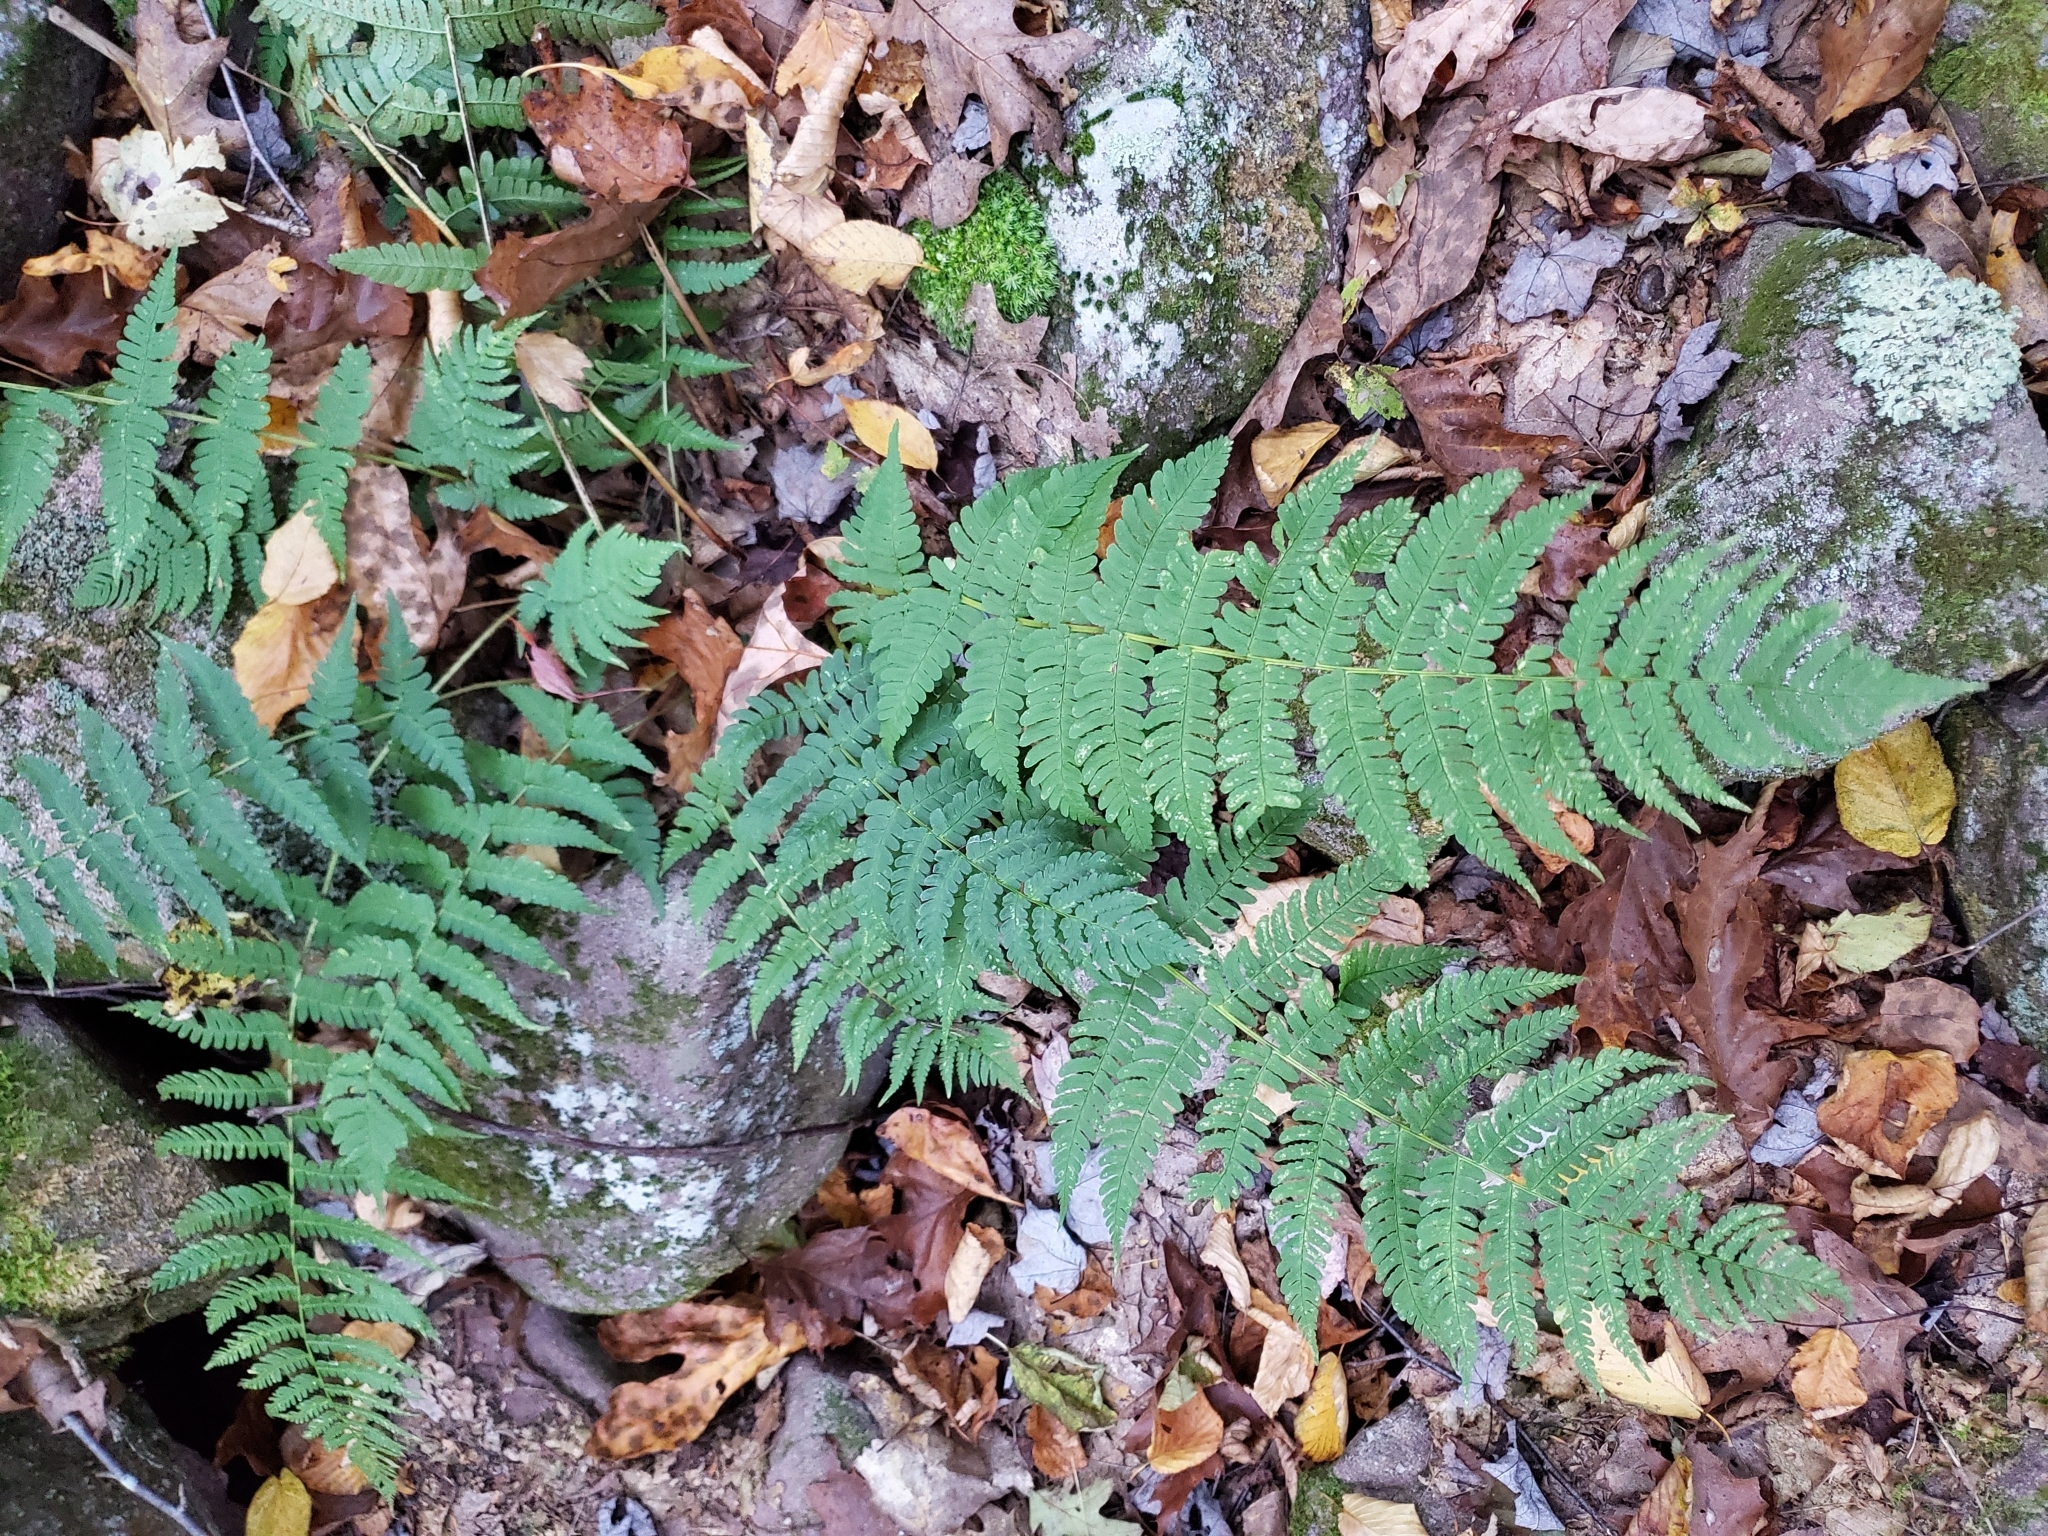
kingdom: Plantae
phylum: Tracheophyta
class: Polypodiopsida
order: Polypodiales
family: Dryopteridaceae
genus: Dryopteris
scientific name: Dryopteris marginalis
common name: Marginal wood fern
